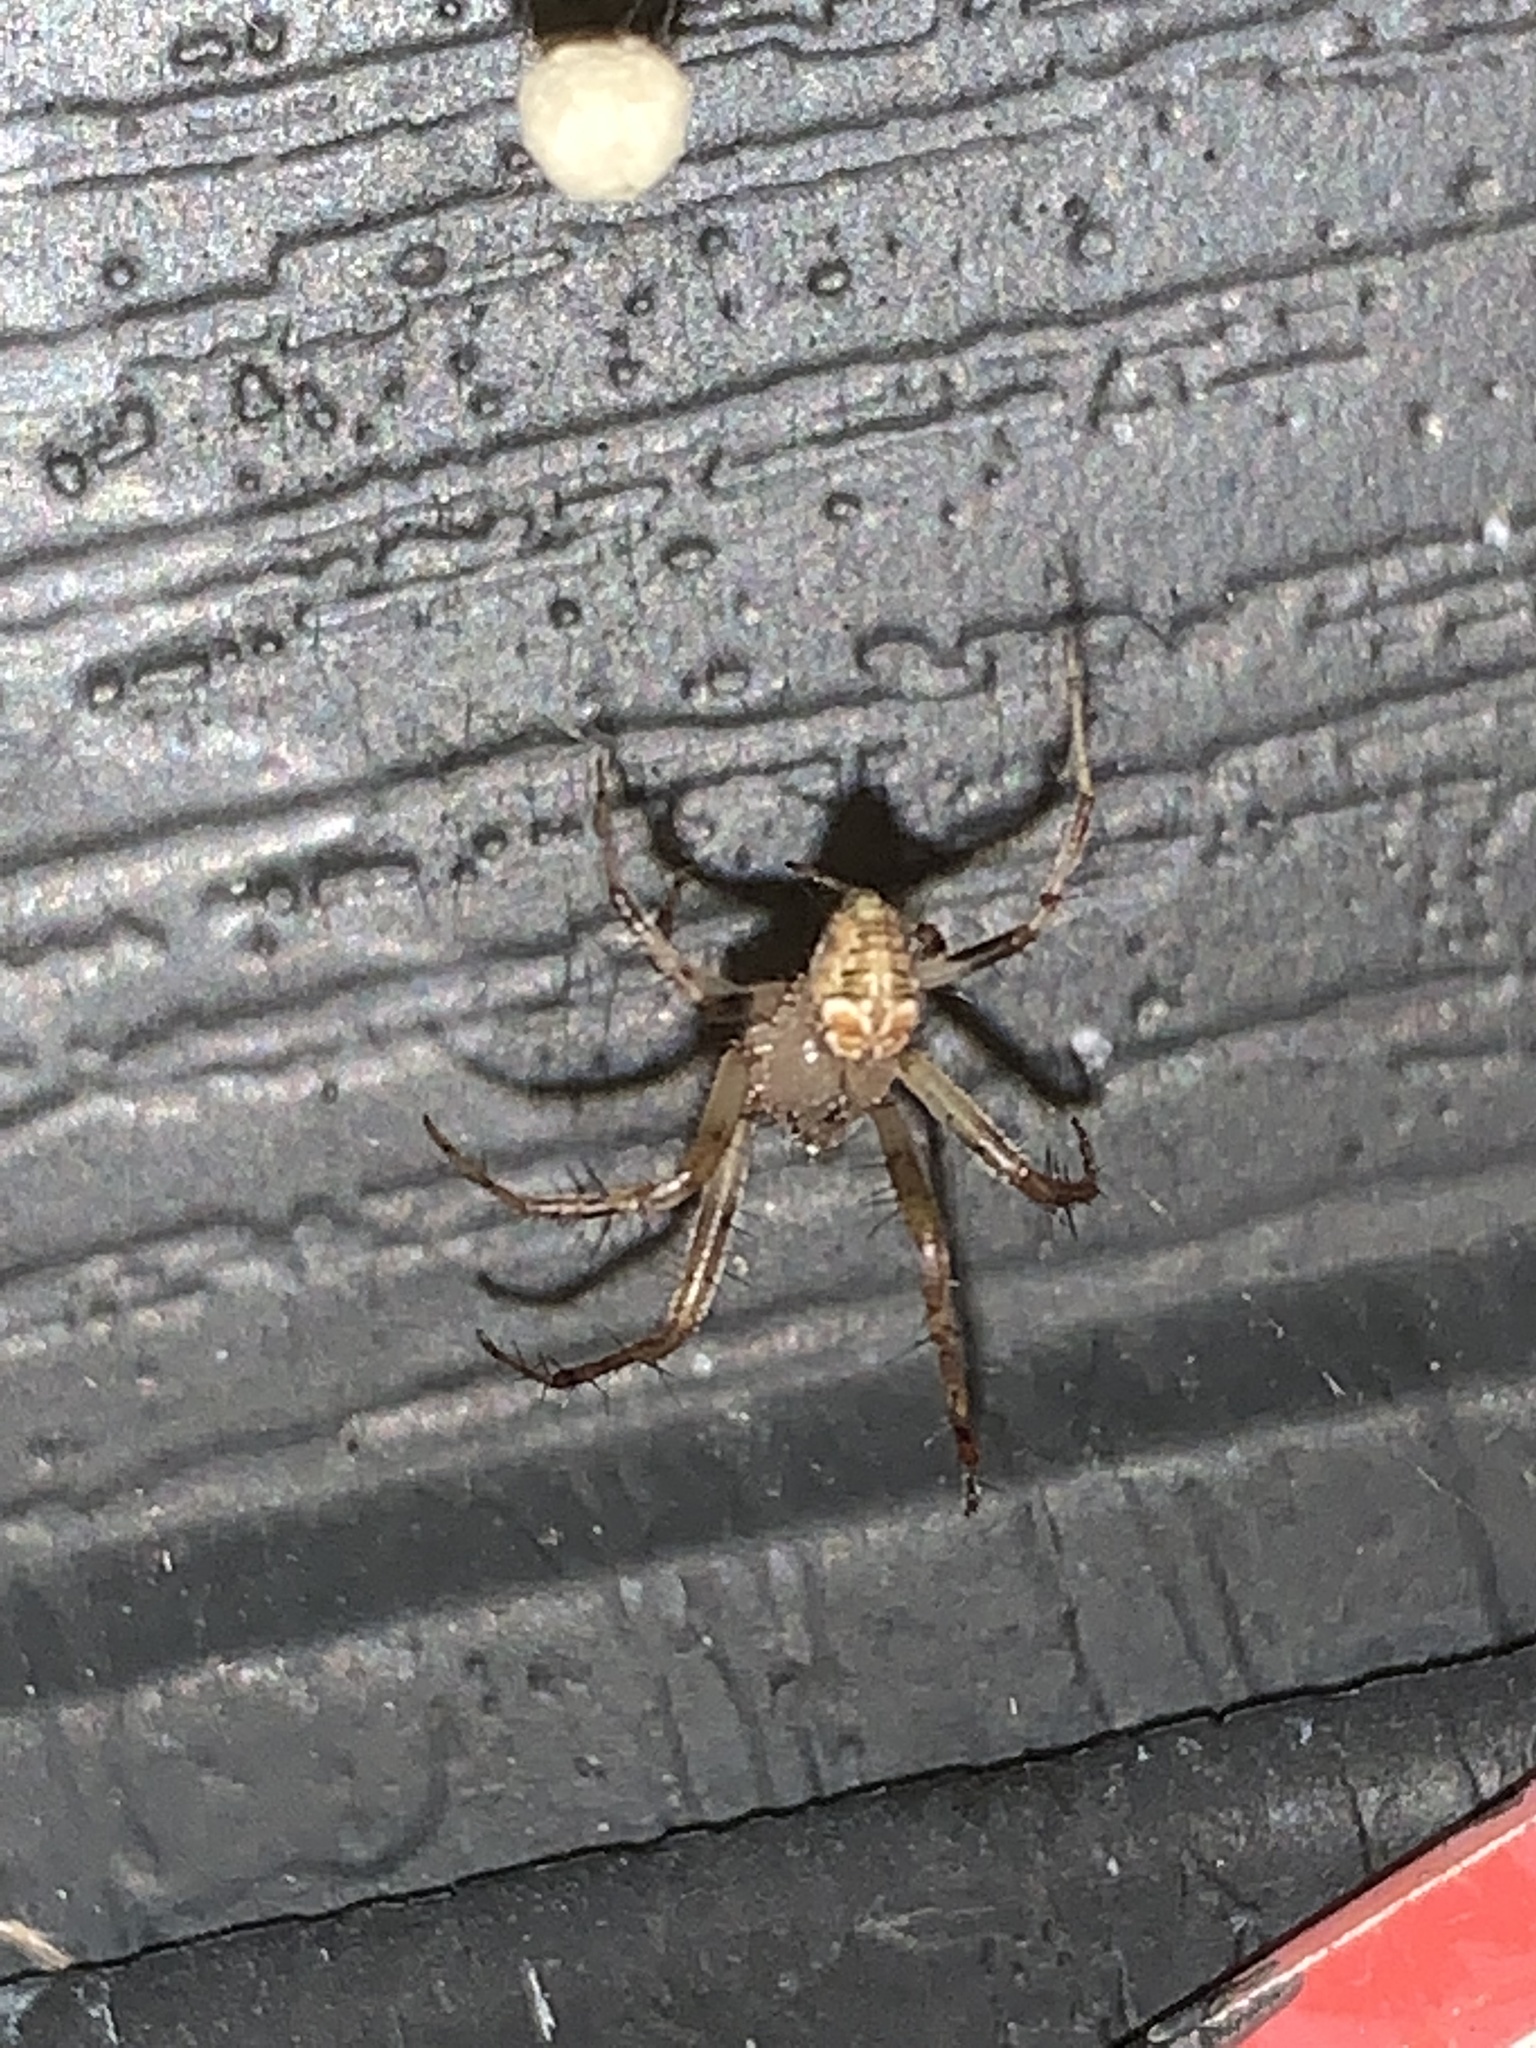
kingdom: Animalia
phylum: Arthropoda
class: Arachnida
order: Araneae
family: Araneidae
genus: Araneus
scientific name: Araneus pegnia
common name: Orb weavers
